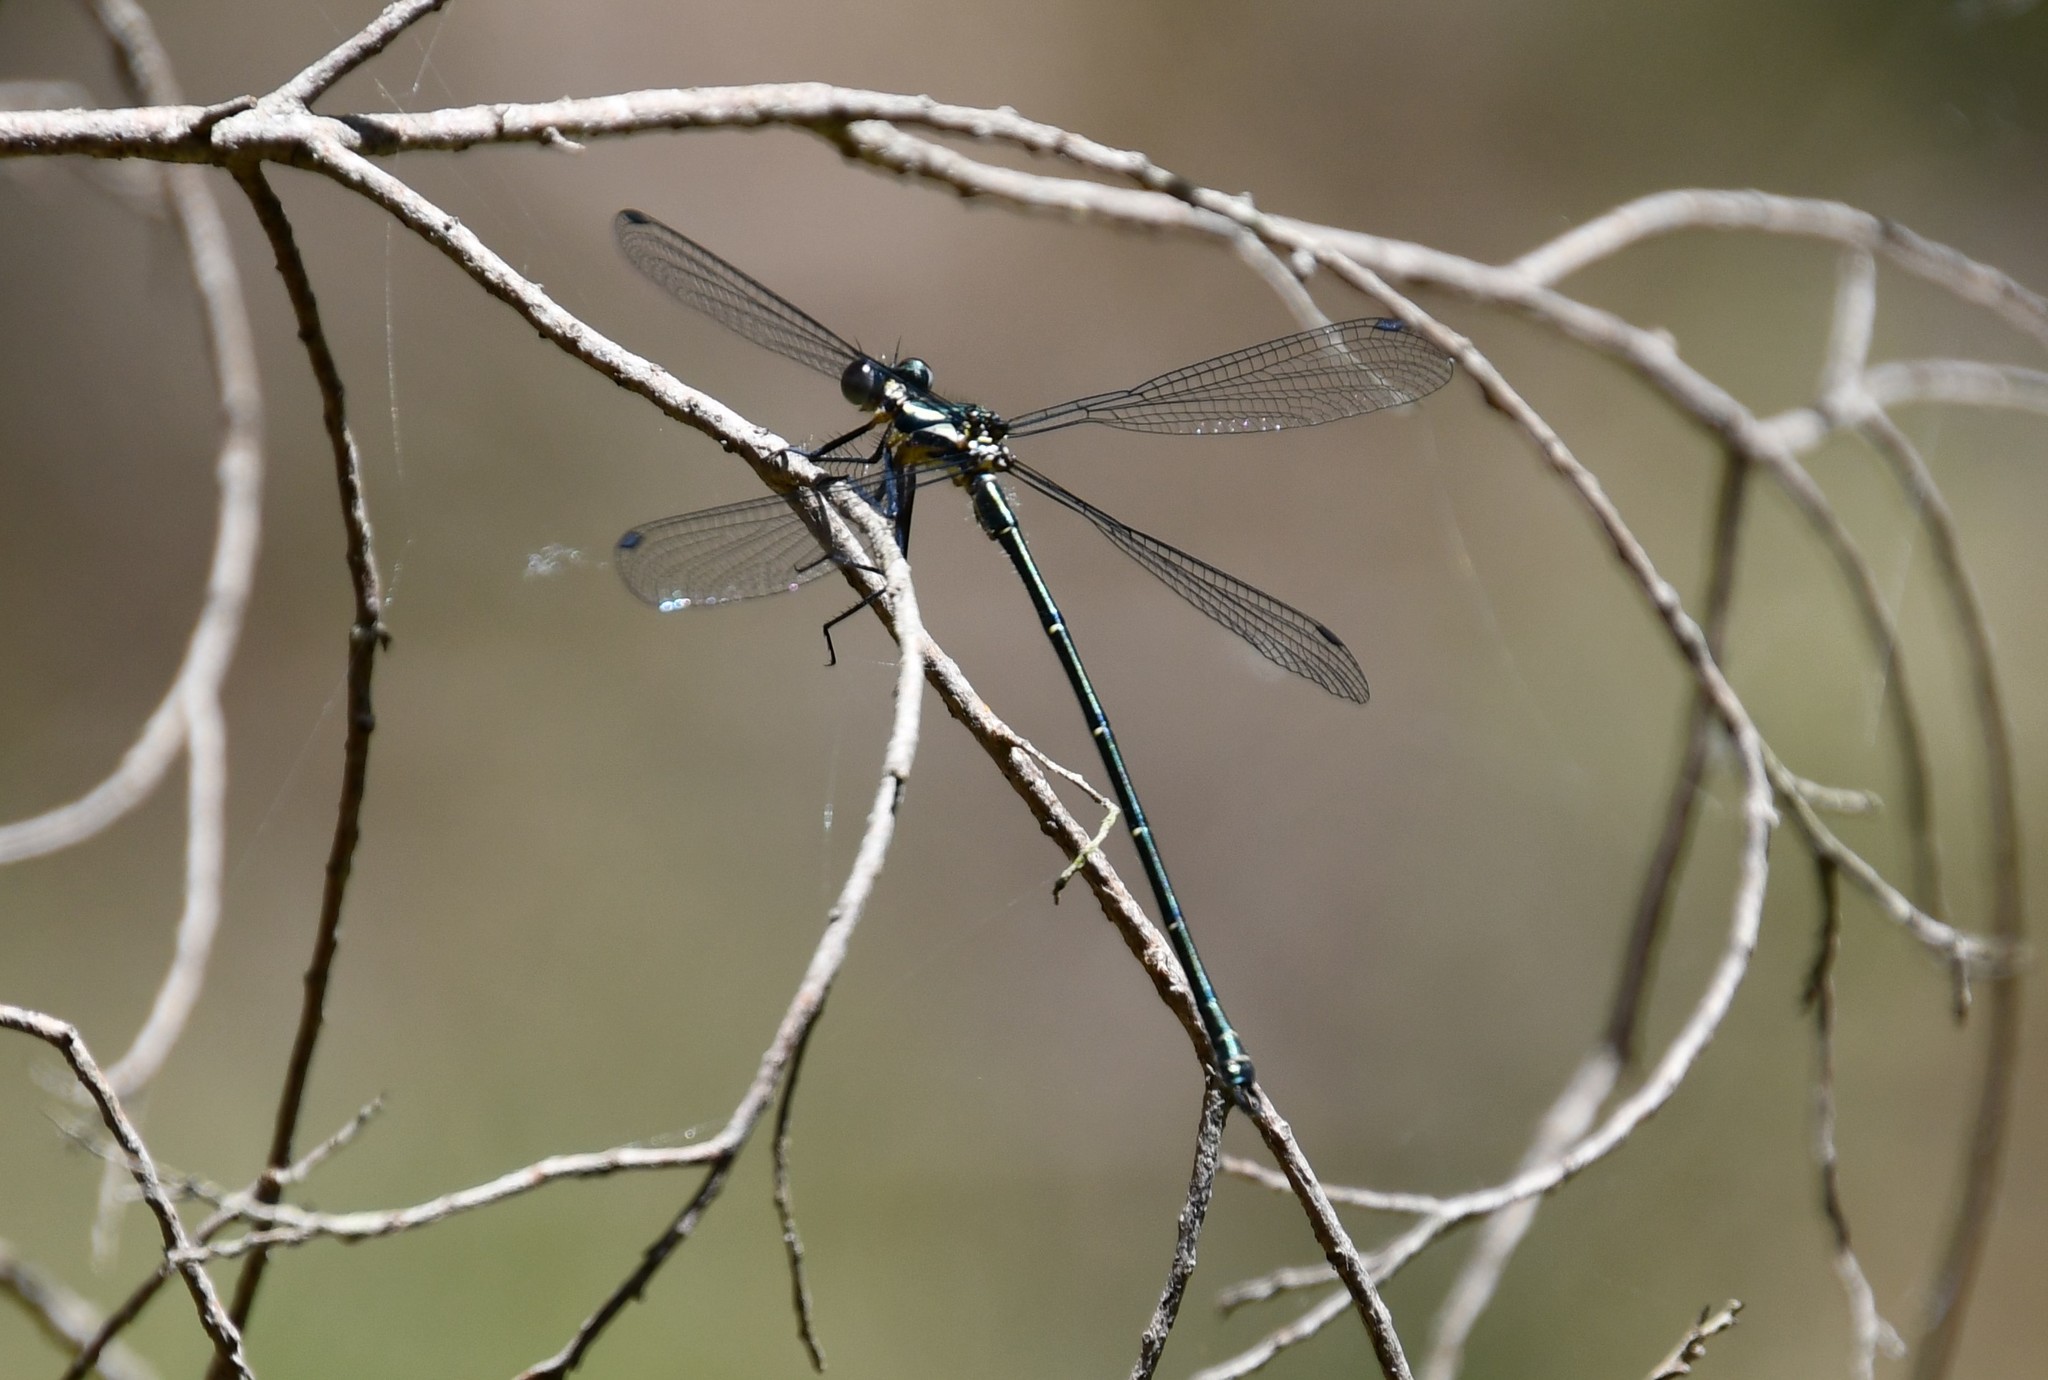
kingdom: Animalia
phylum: Arthropoda
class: Insecta
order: Odonata
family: Argiolestidae
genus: Austroargiolestes
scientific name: Austroargiolestes icteromelas
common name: Common flatwing
